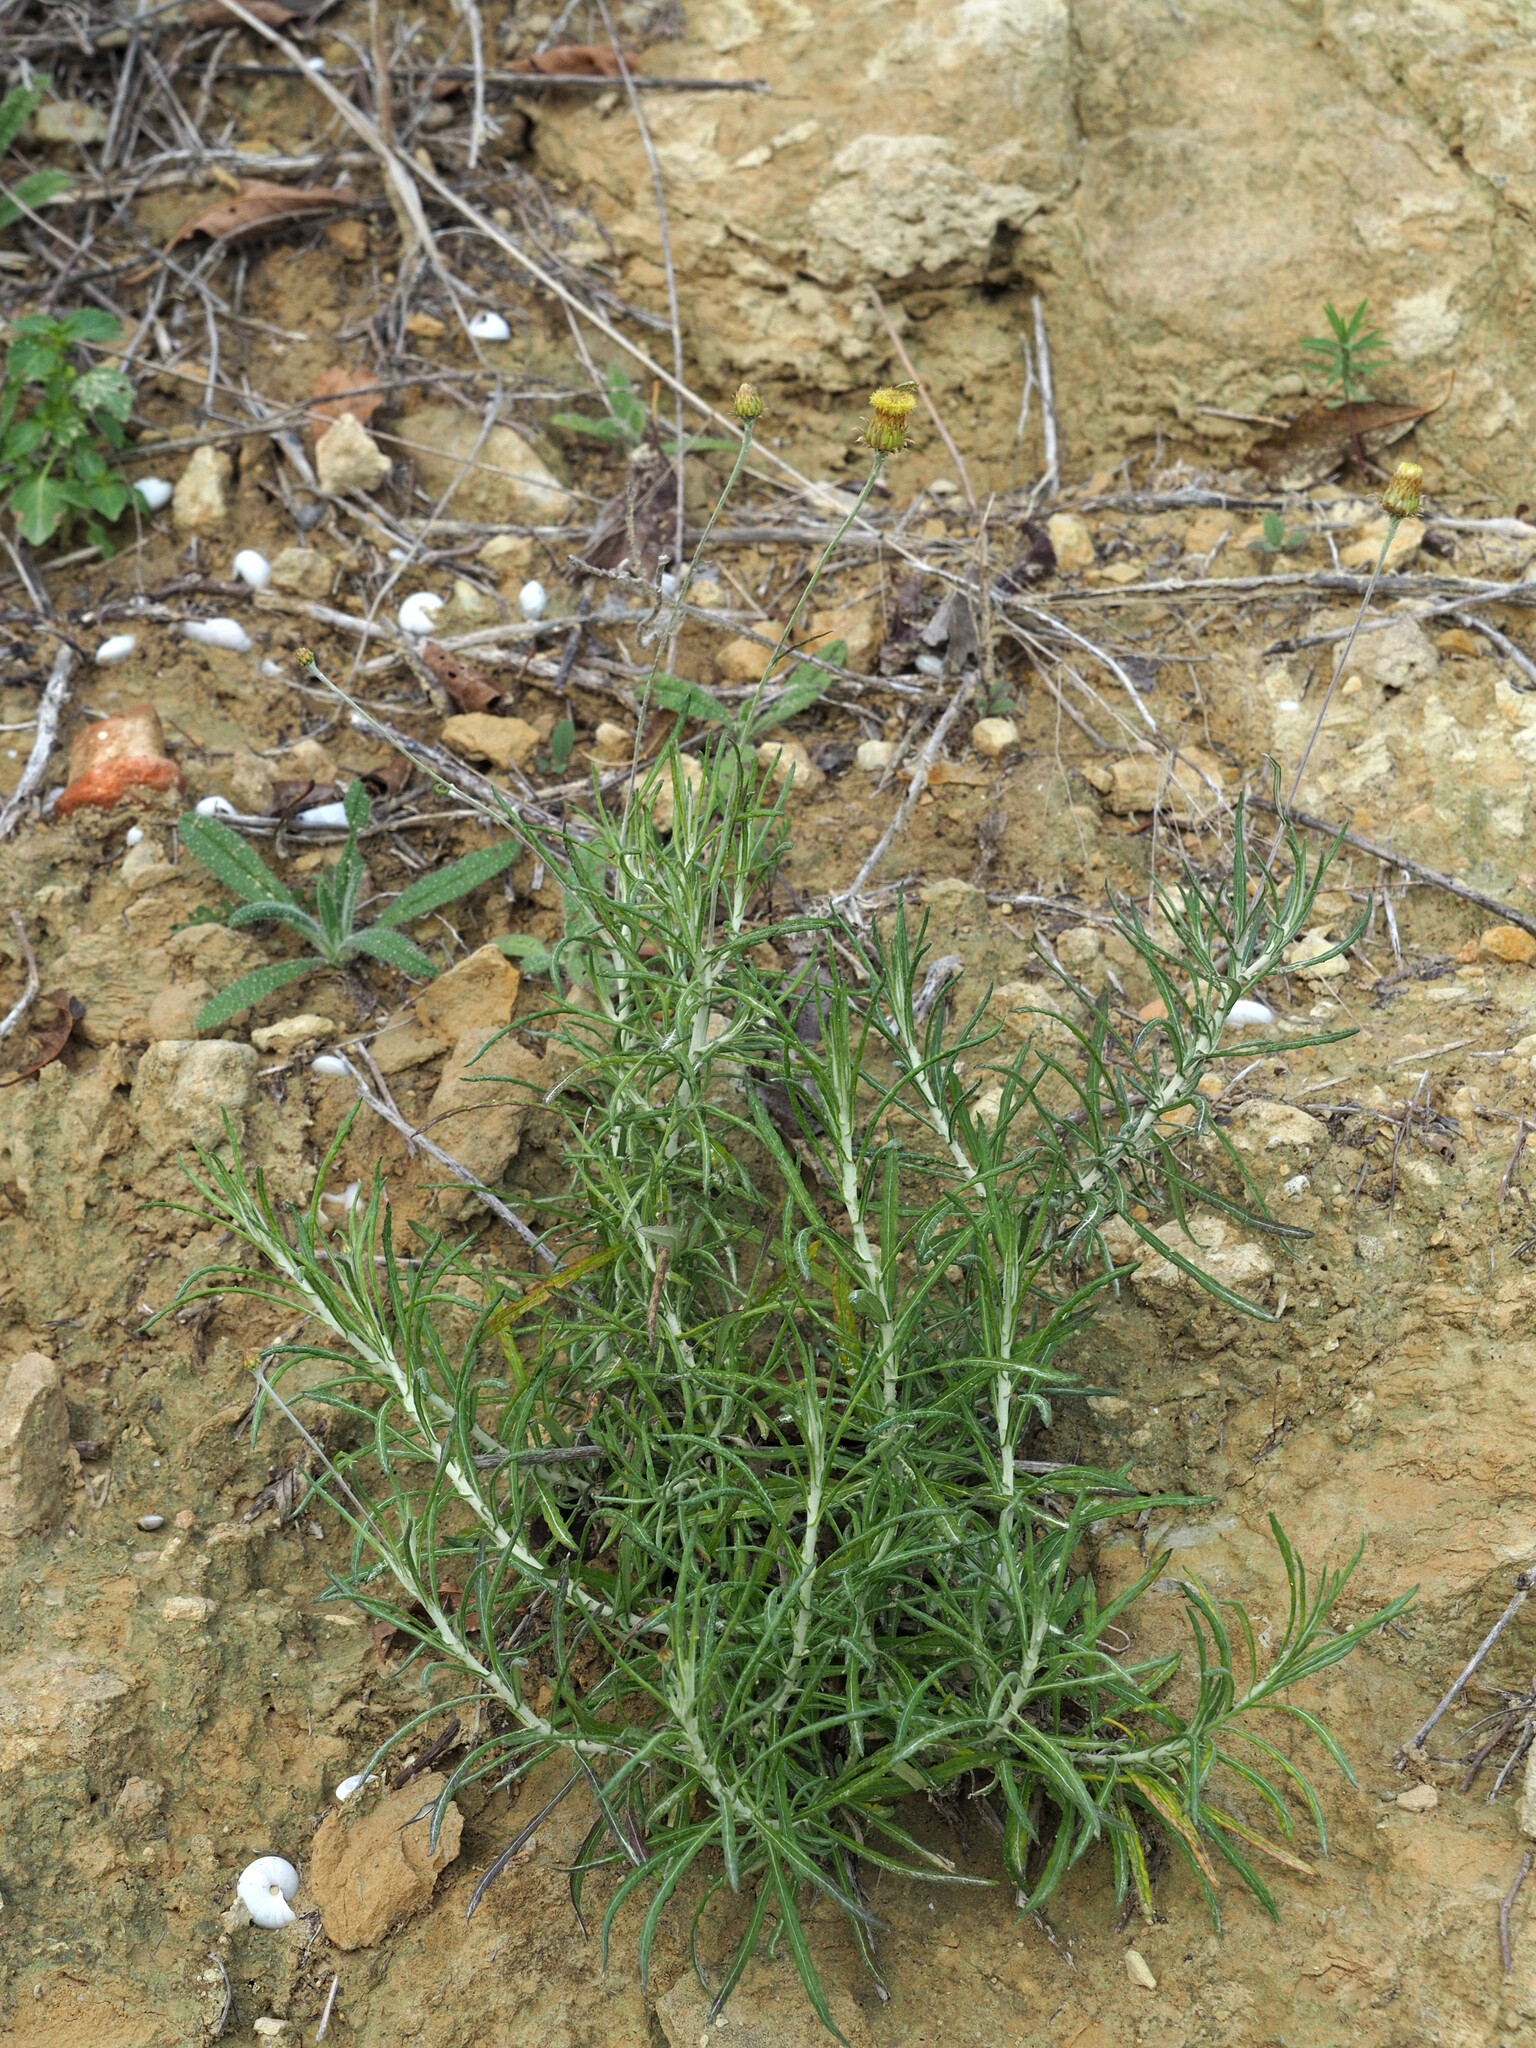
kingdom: Plantae
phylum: Tracheophyta
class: Magnoliopsida
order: Asterales
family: Asteraceae
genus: Phagnalon
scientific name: Phagnalon saxatile
